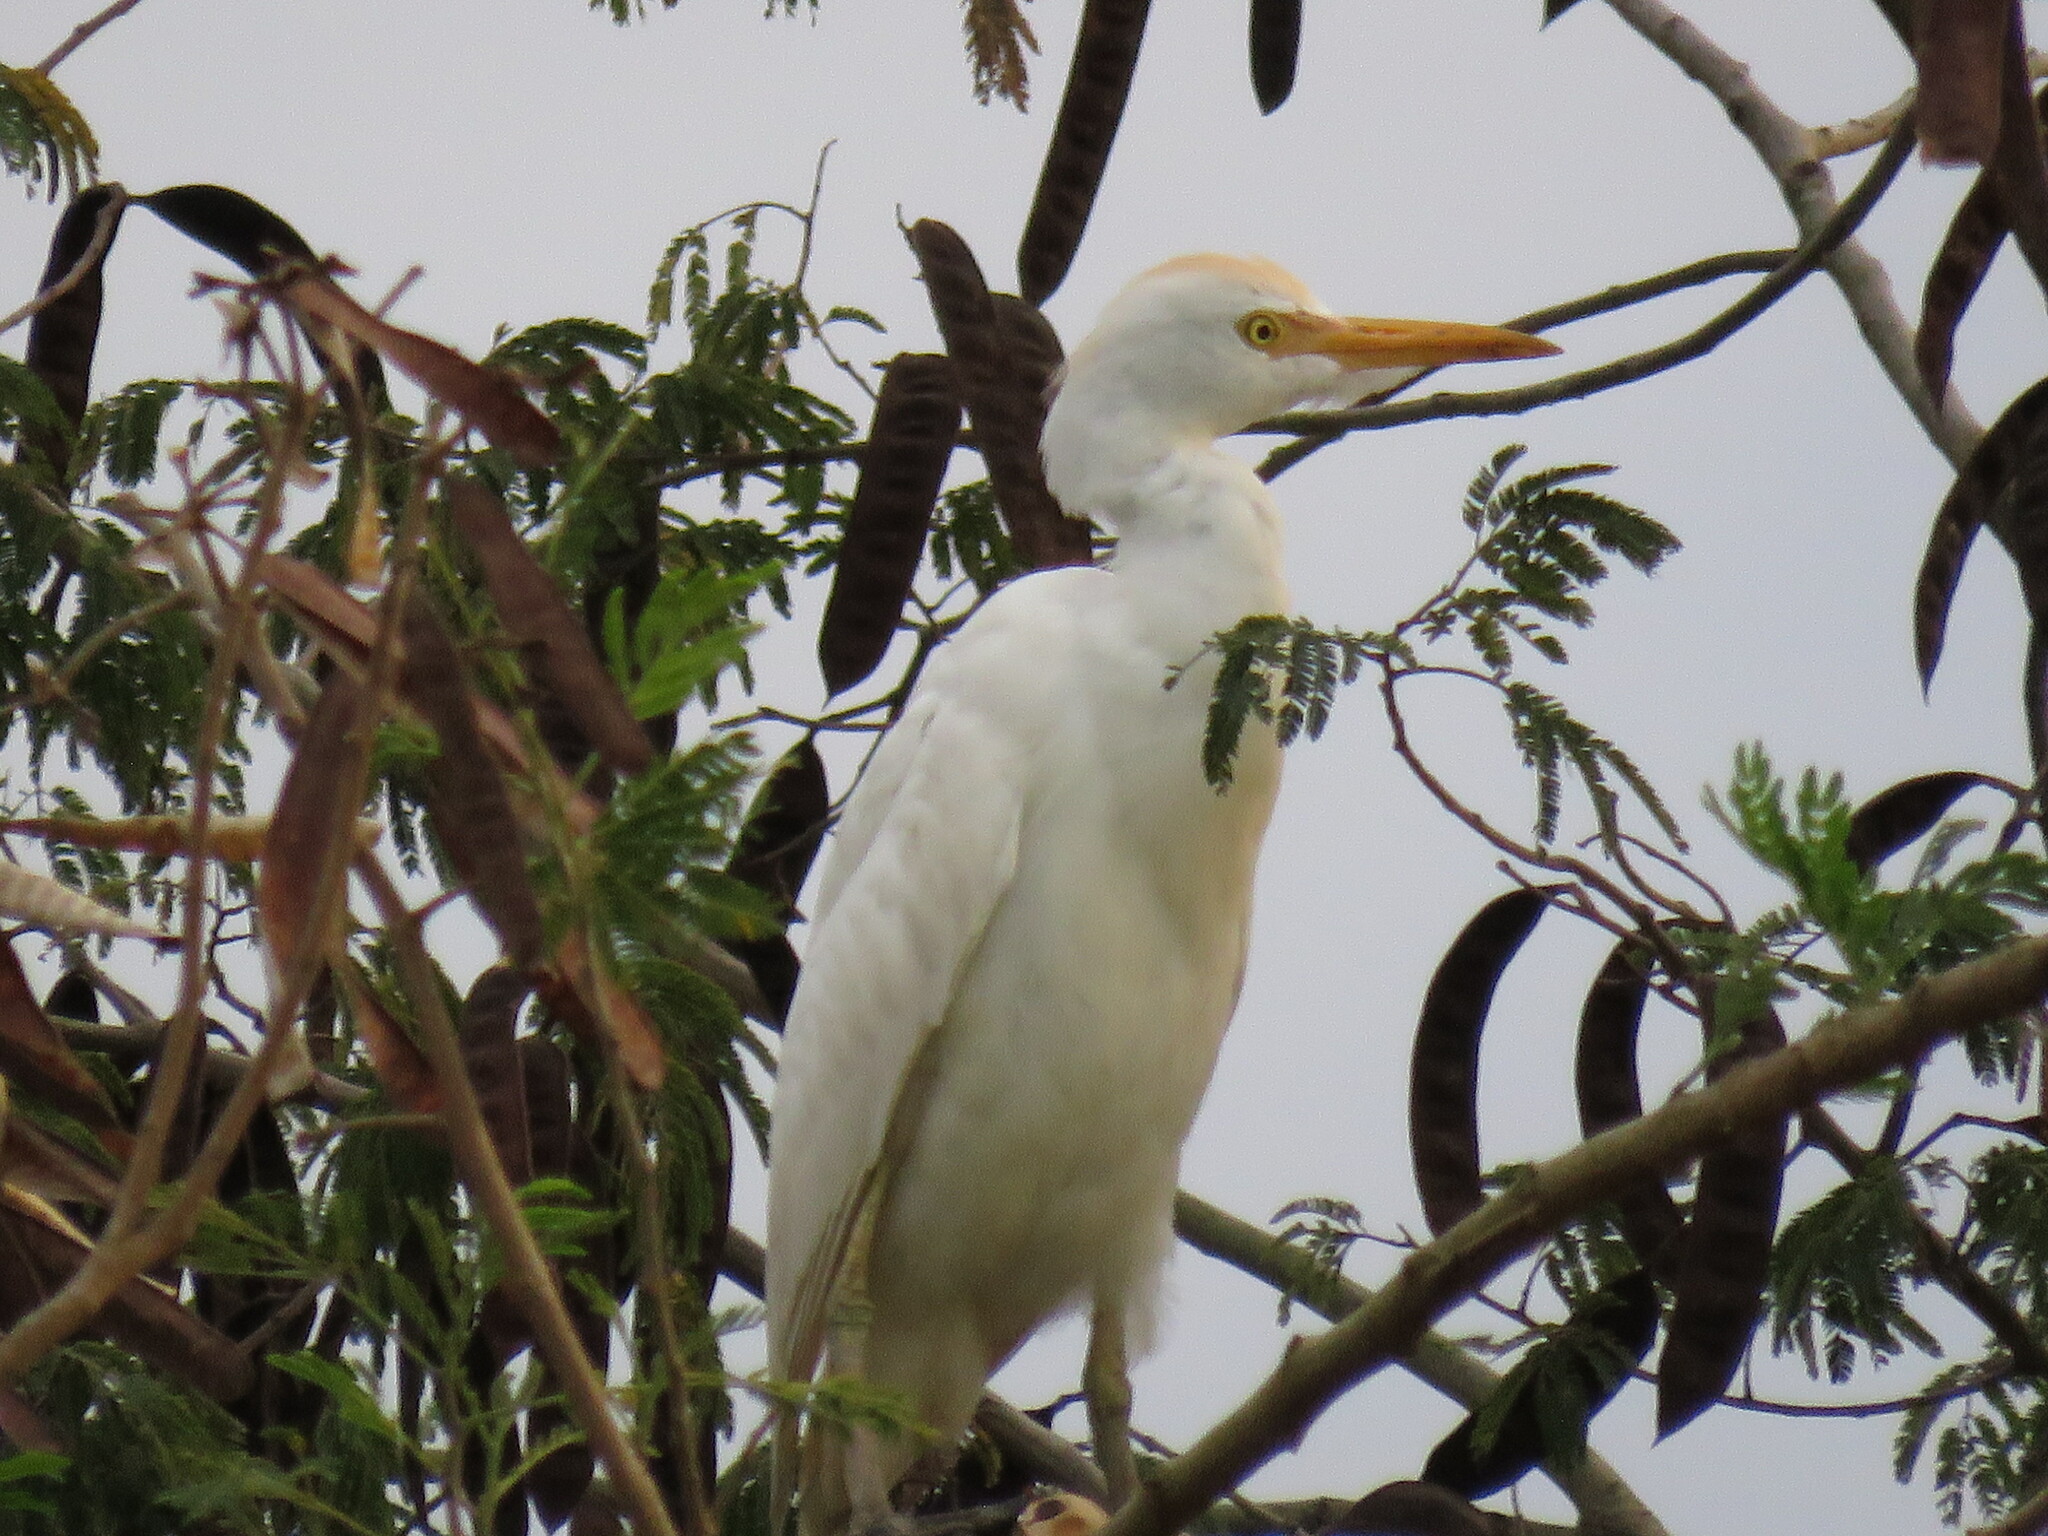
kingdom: Animalia
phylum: Chordata
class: Aves
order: Pelecaniformes
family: Ardeidae
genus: Bubulcus
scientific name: Bubulcus ibis
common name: Cattle egret
